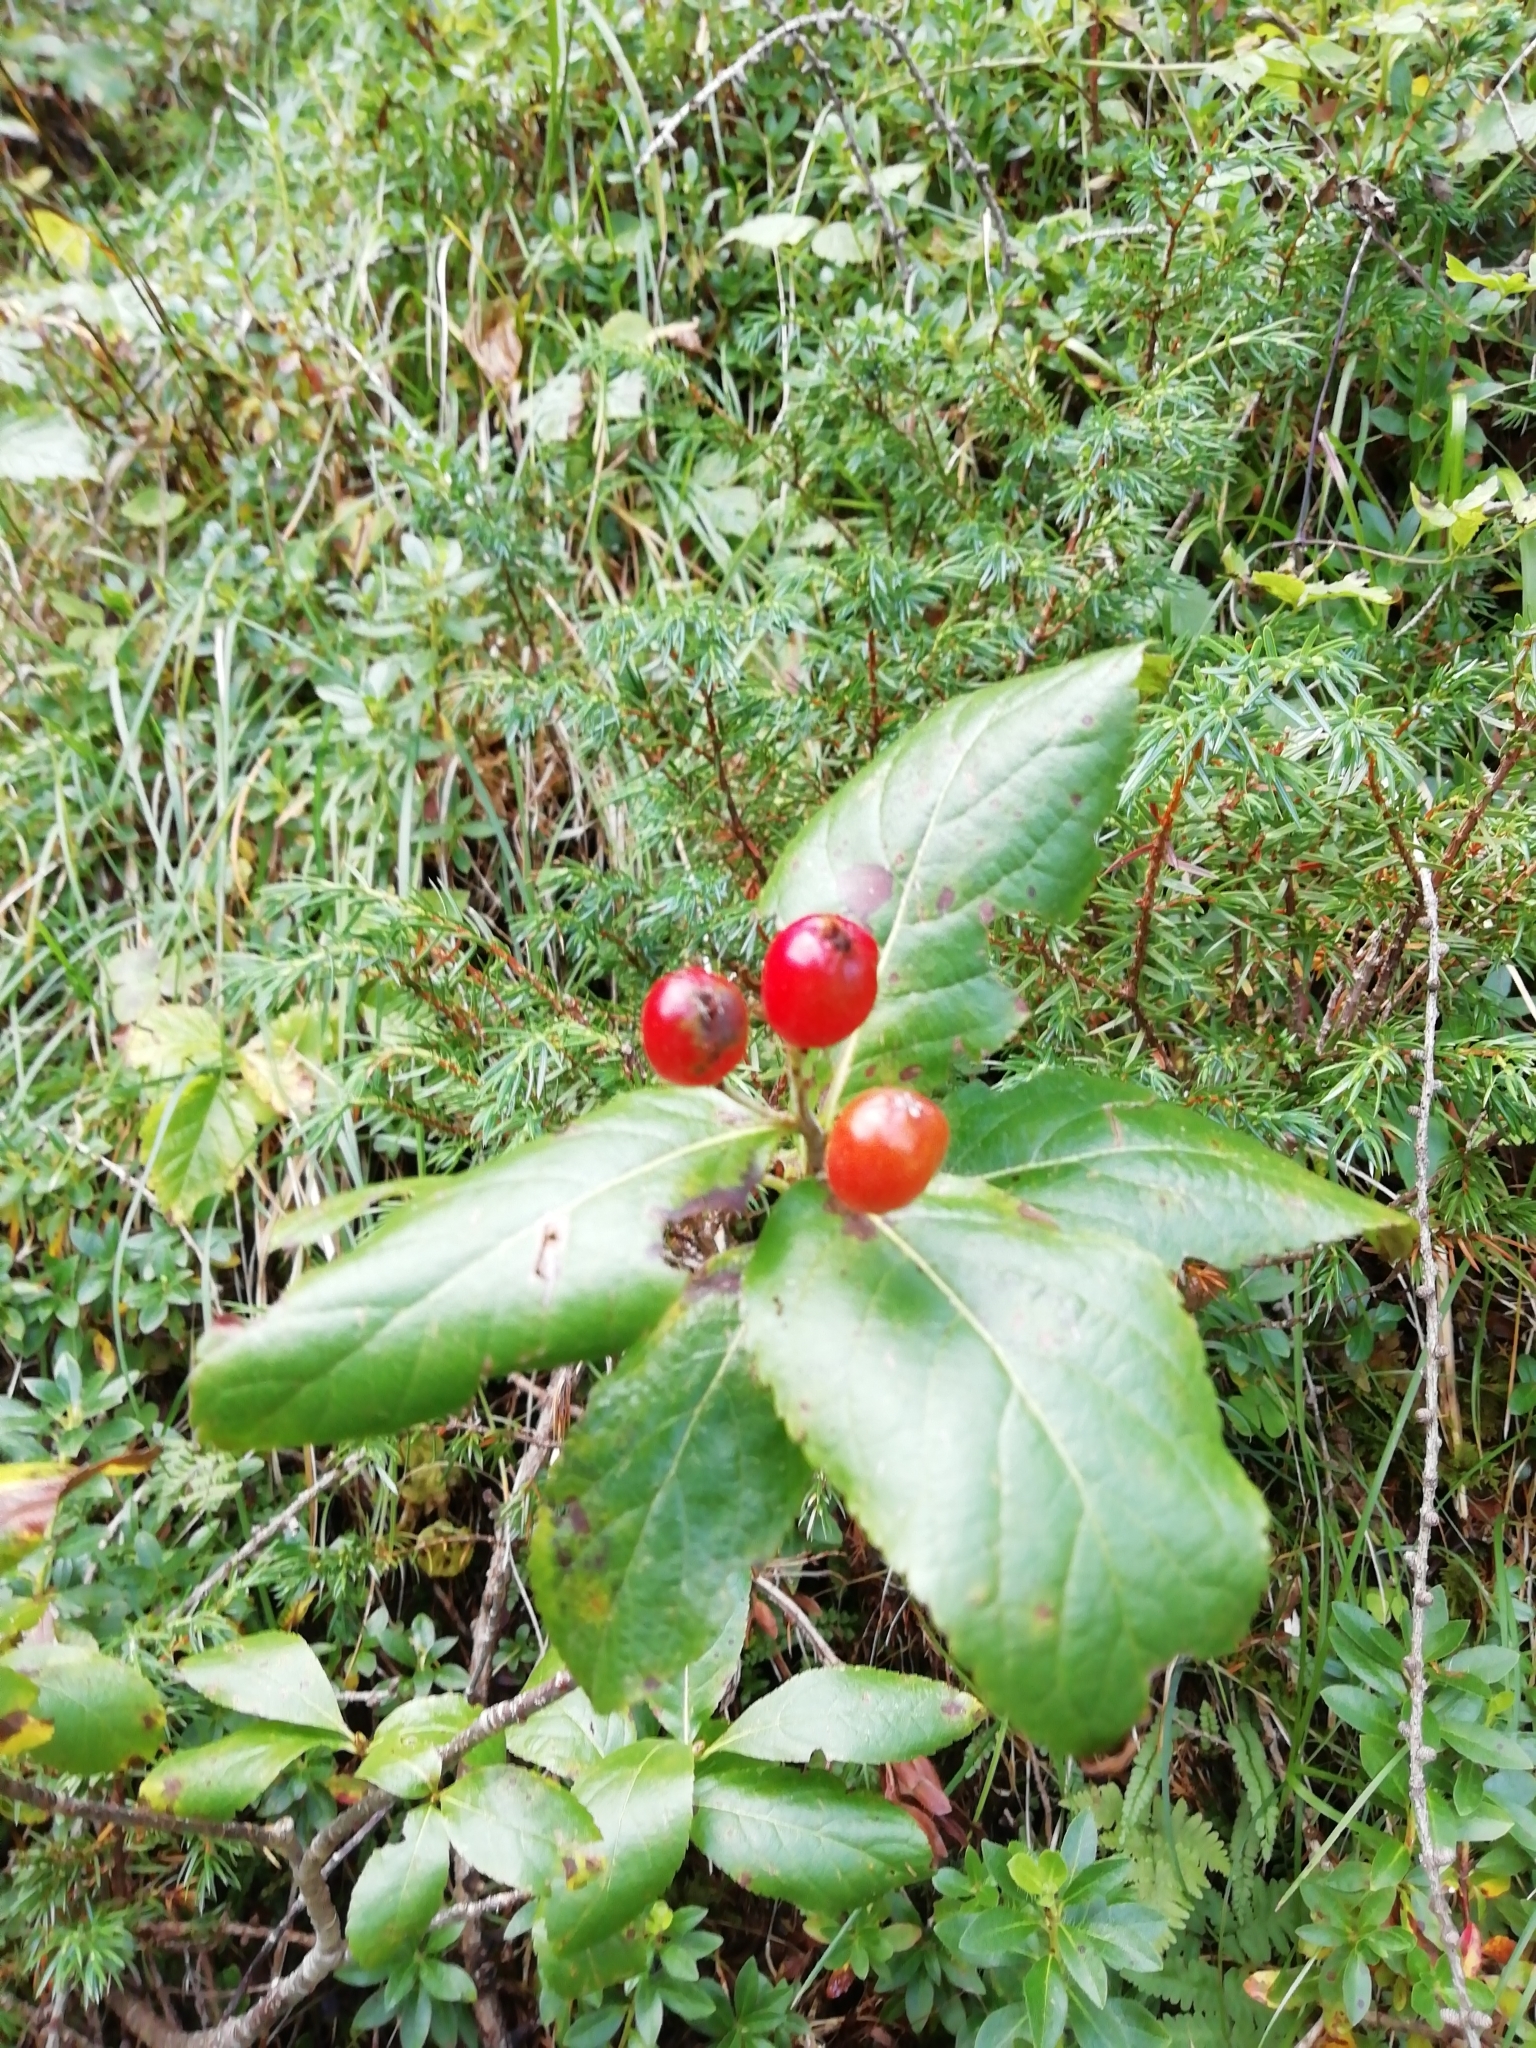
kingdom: Plantae
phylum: Tracheophyta
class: Magnoliopsida
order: Rosales
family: Rosaceae
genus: Chamaemespilus
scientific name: Chamaemespilus alpina
